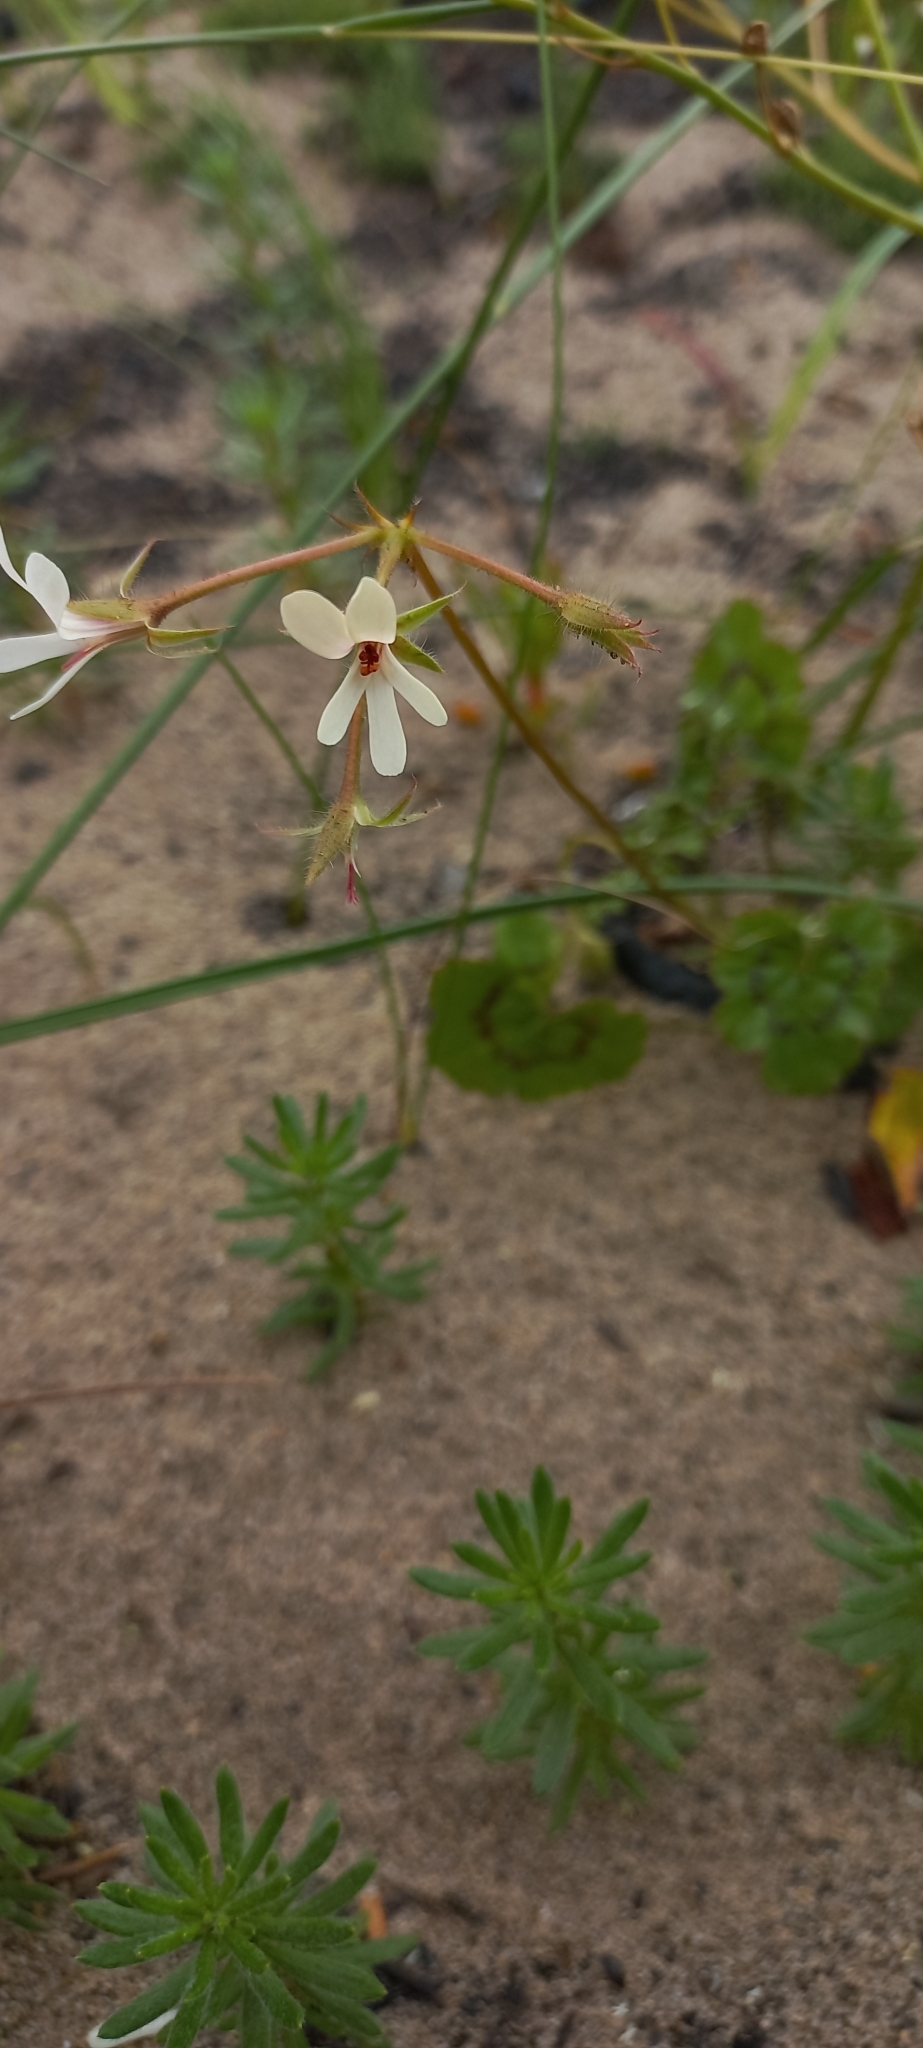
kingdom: Plantae
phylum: Tracheophyta
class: Magnoliopsida
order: Geraniales
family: Geraniaceae
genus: Pelargonium
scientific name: Pelargonium elongatum
